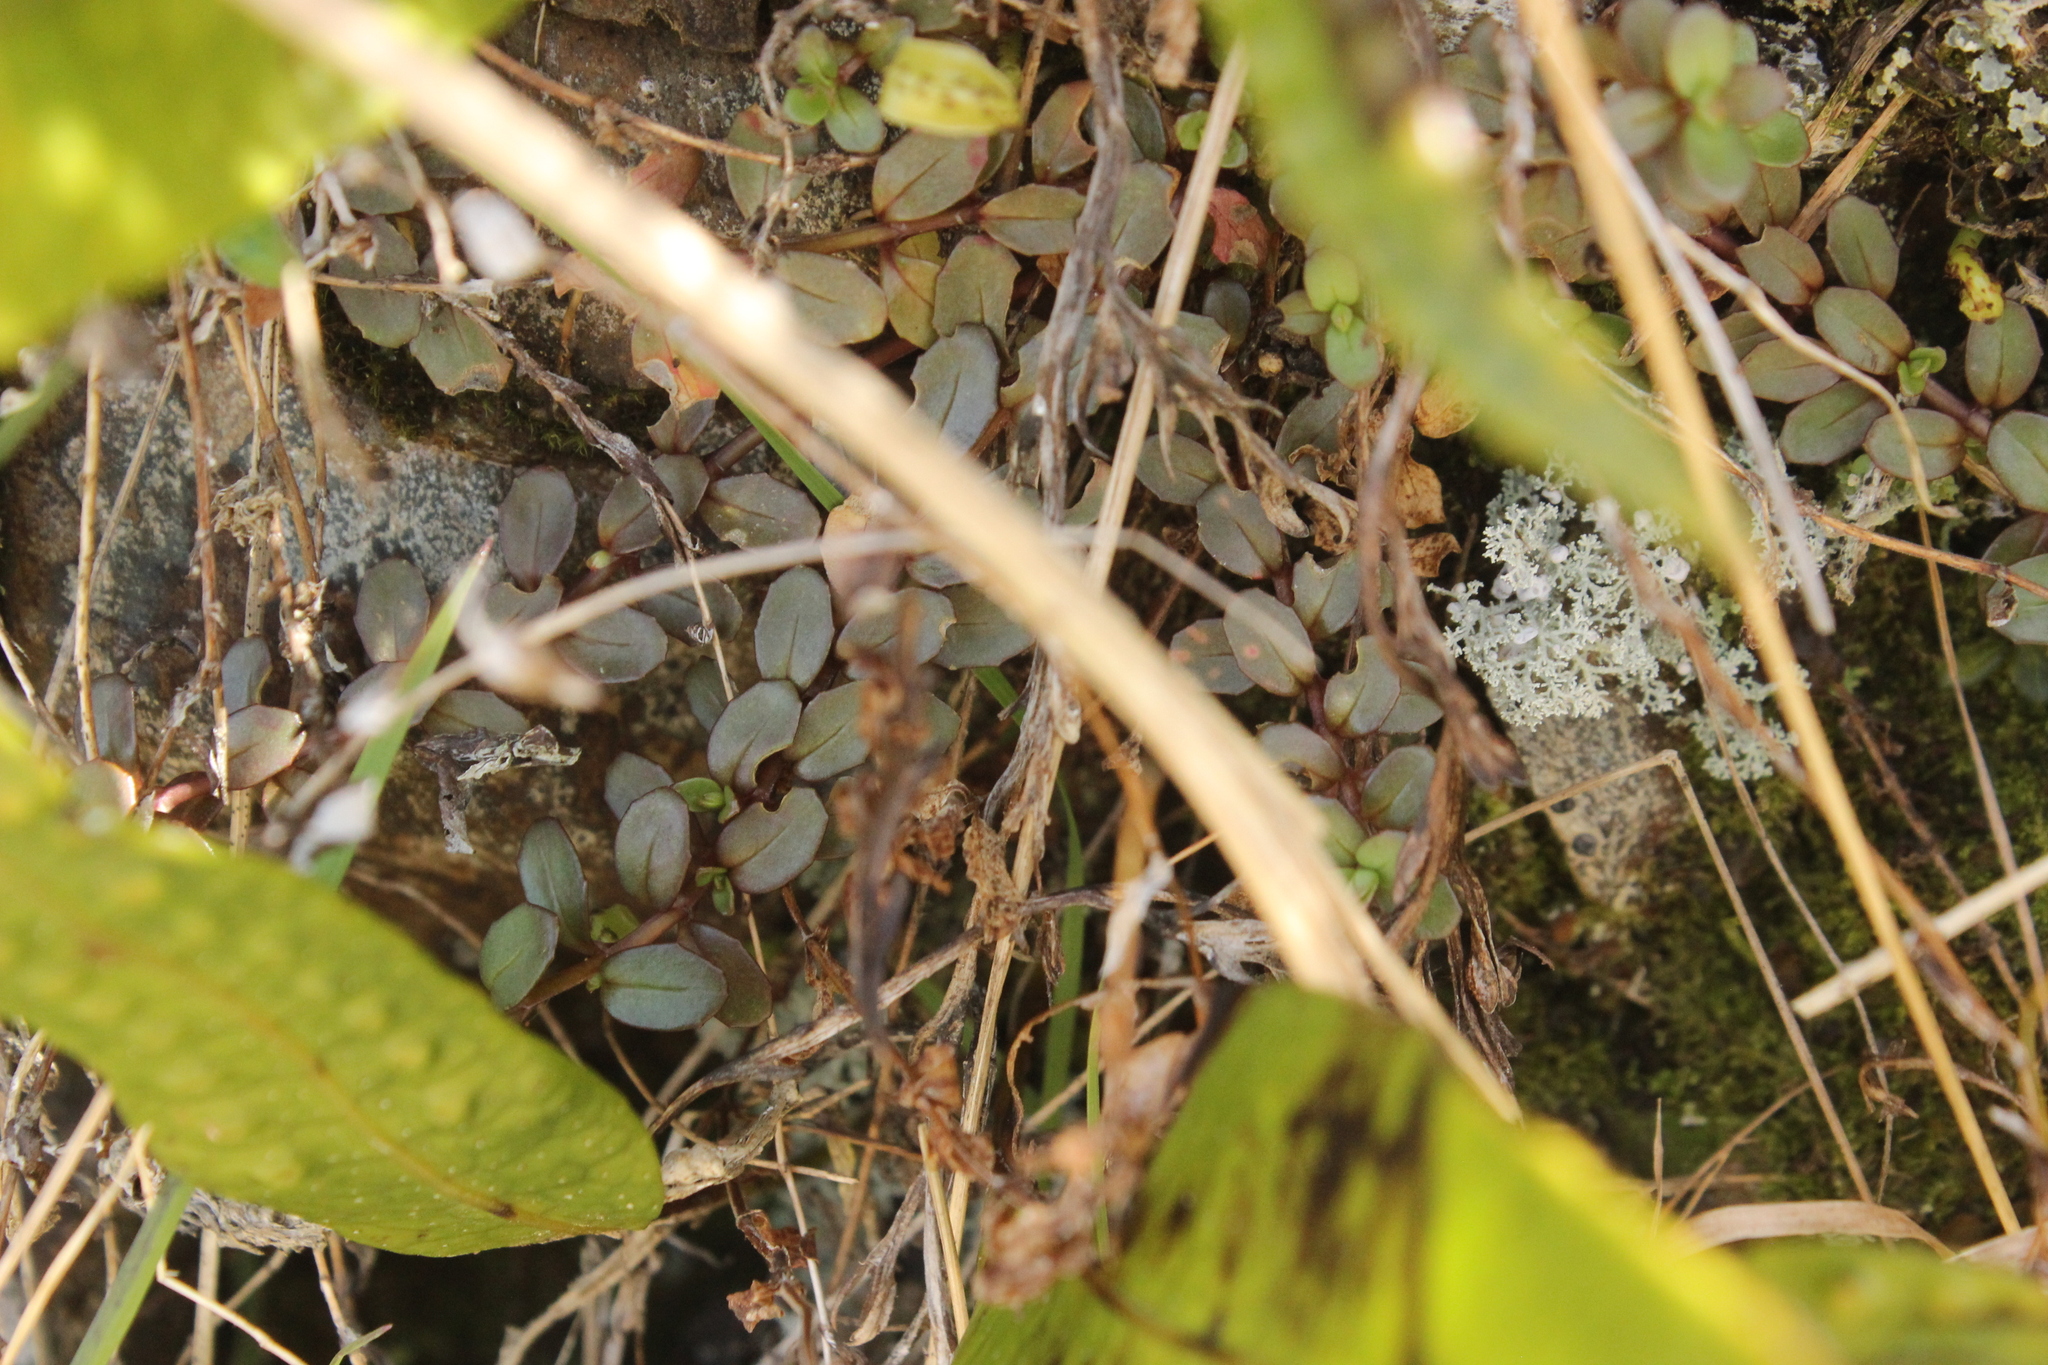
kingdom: Plantae
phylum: Tracheophyta
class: Magnoliopsida
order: Myrtales
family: Onagraceae
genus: Epilobium
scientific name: Epilobium alsinoides
